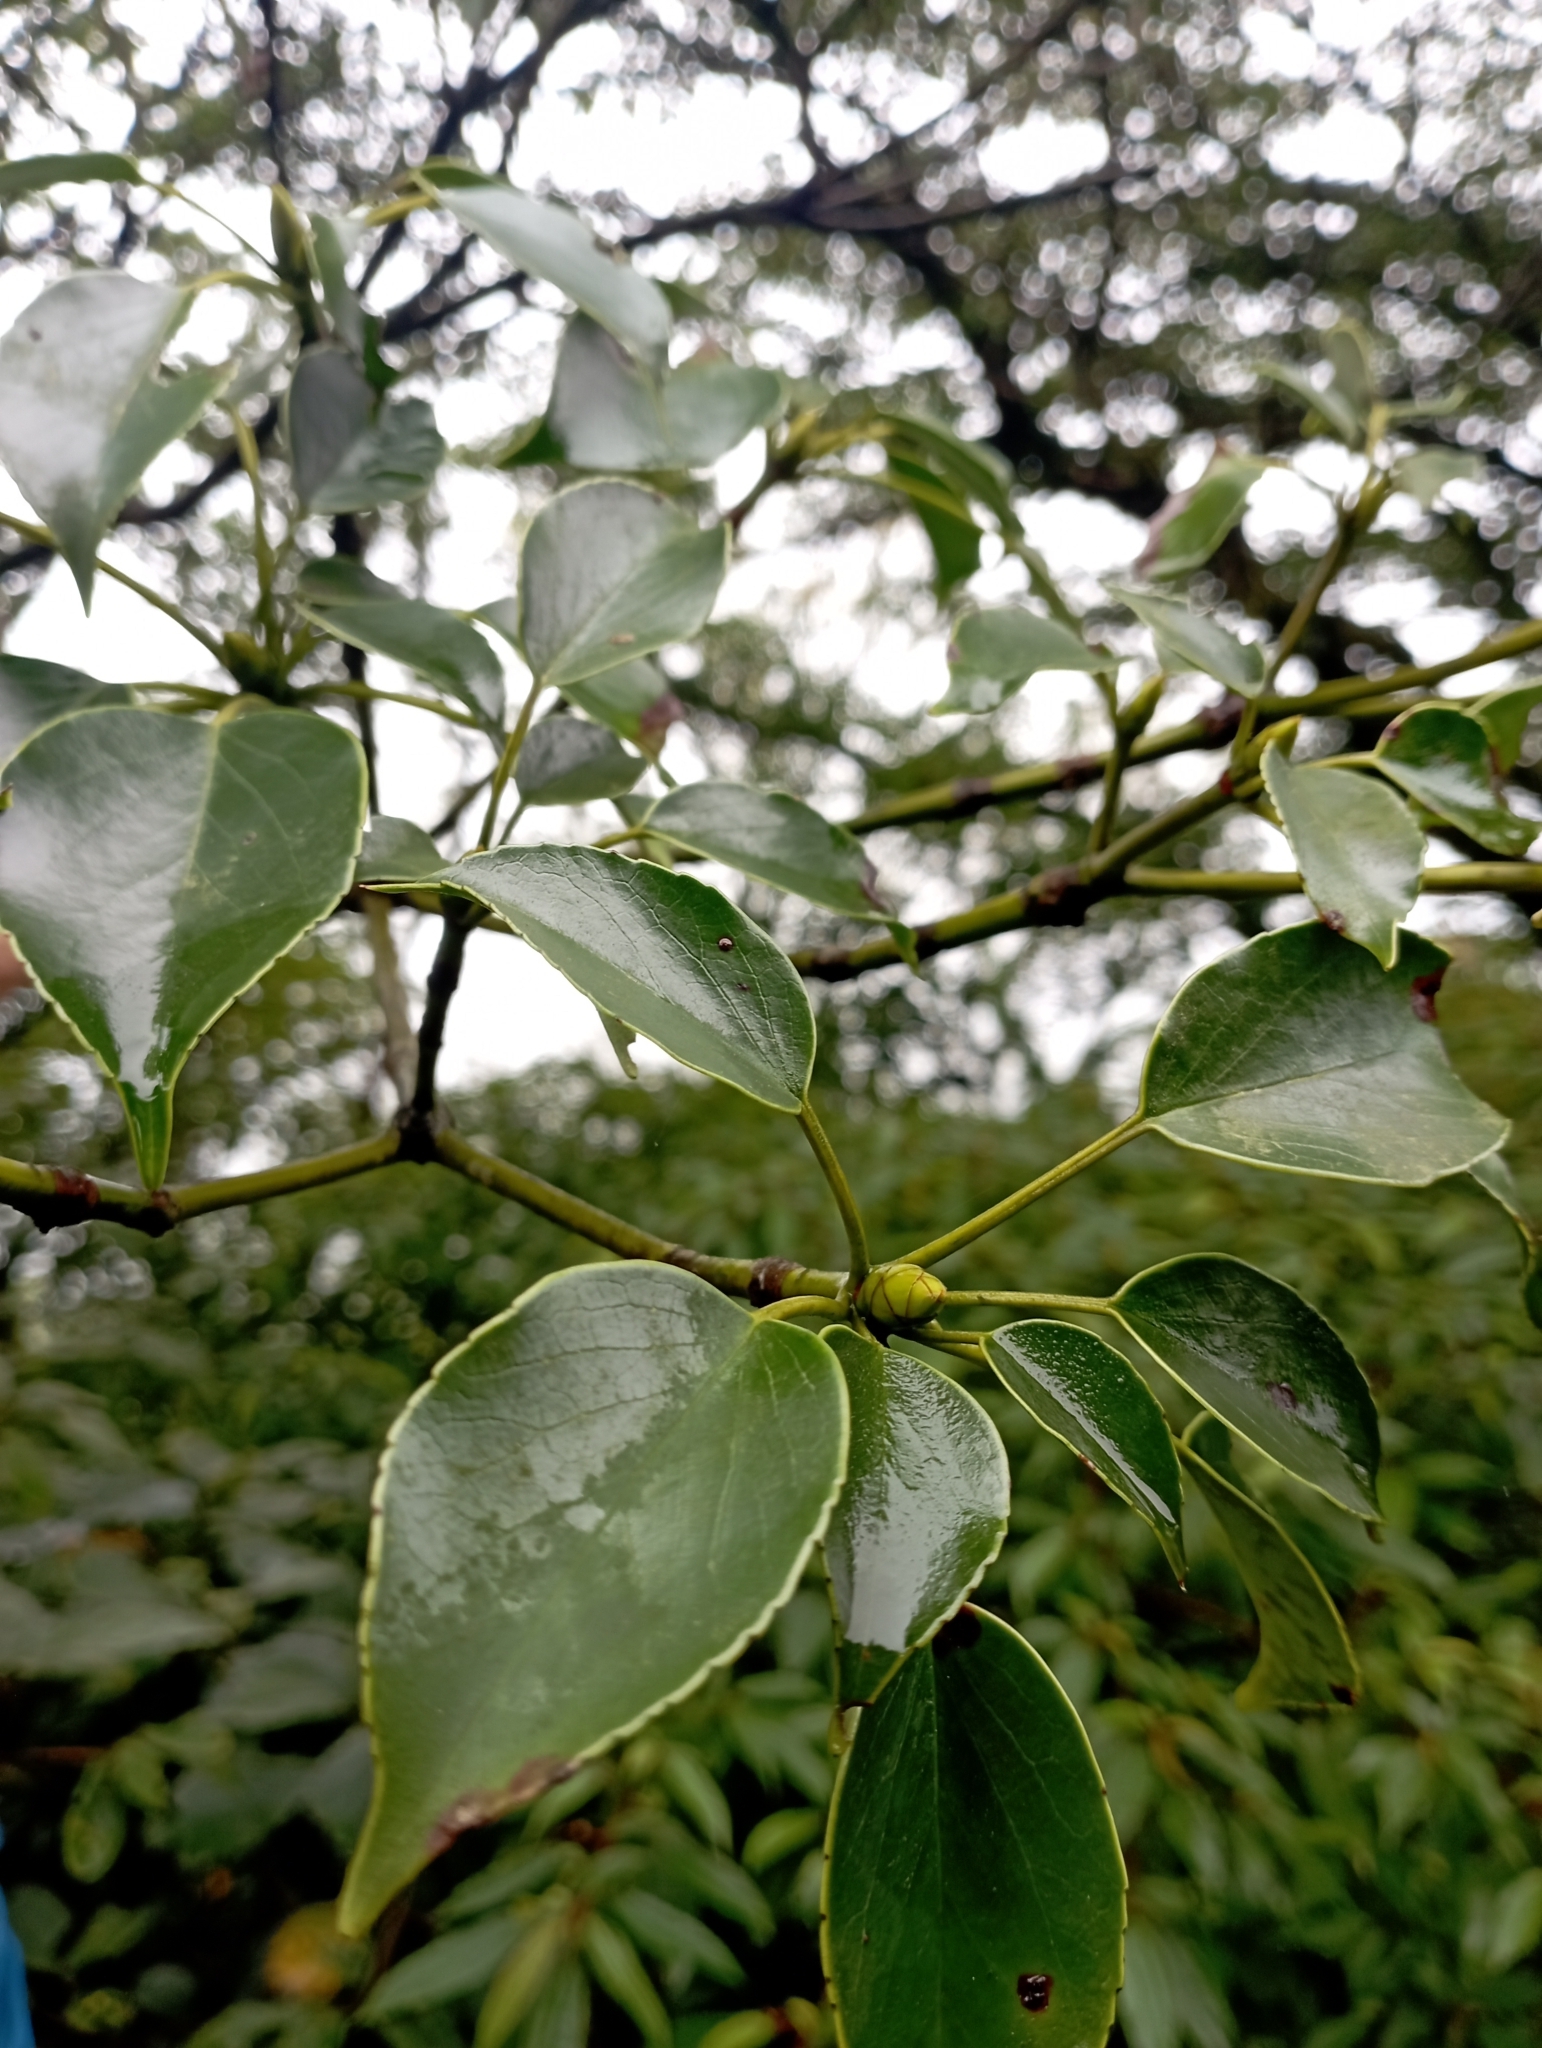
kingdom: Plantae
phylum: Tracheophyta
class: Magnoliopsida
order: Trochodendrales
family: Trochodendraceae
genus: Trochodendron
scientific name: Trochodendron aralioides
